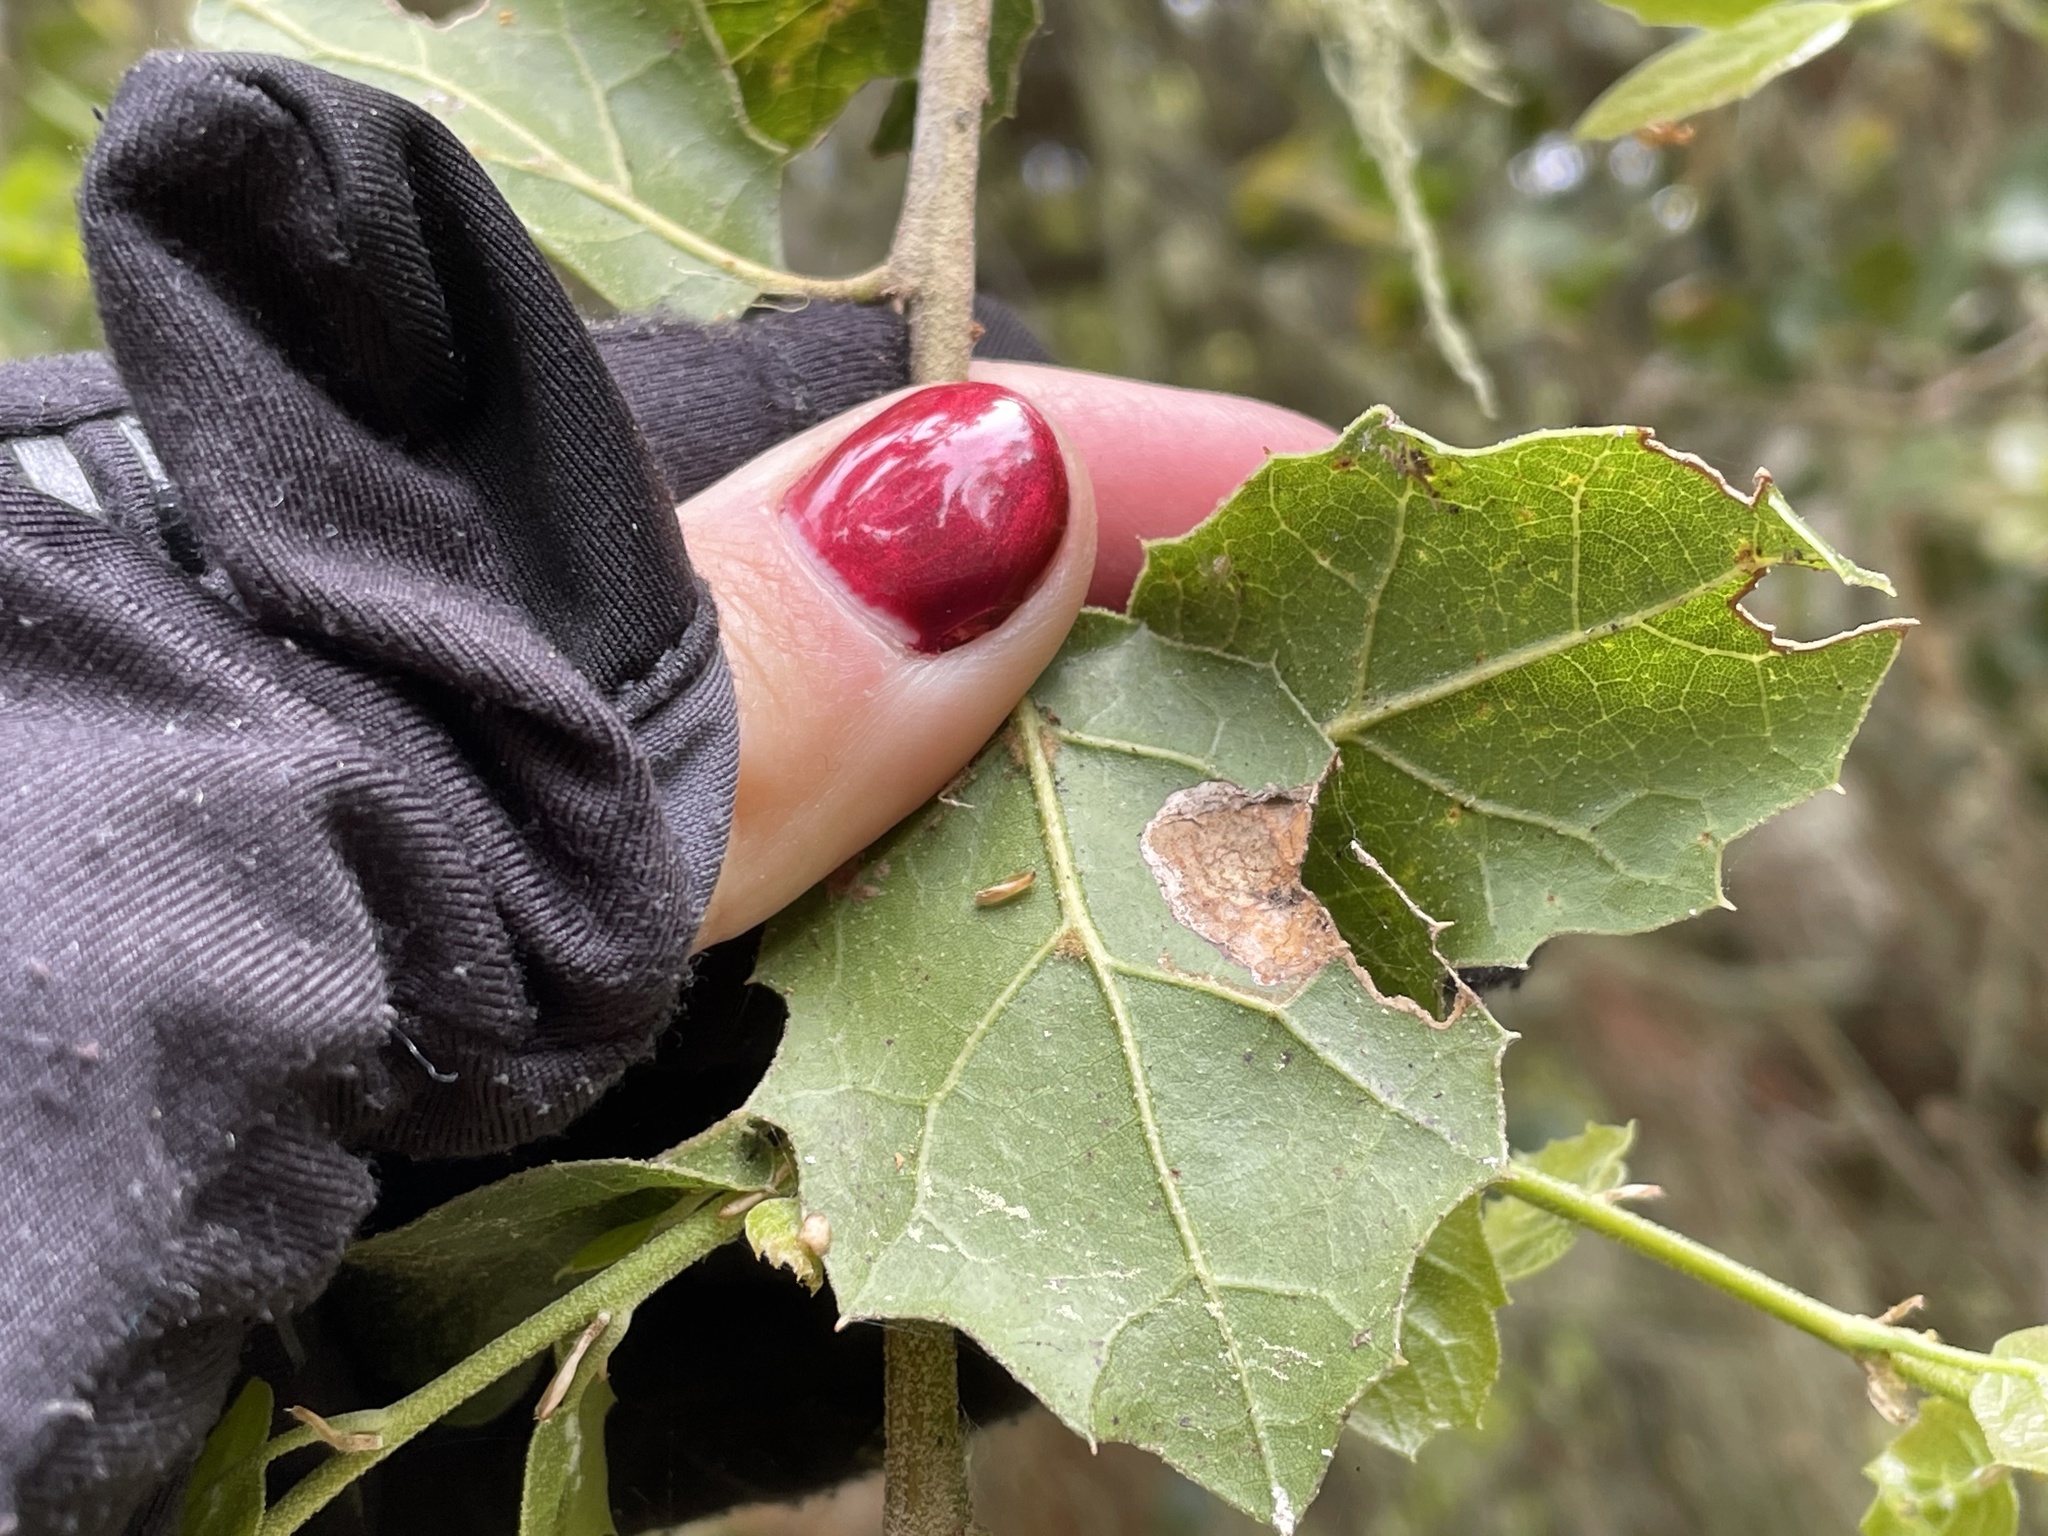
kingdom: Plantae
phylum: Tracheophyta
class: Magnoliopsida
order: Fagales
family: Fagaceae
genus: Quercus
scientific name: Quercus agrifolia
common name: California live oak
